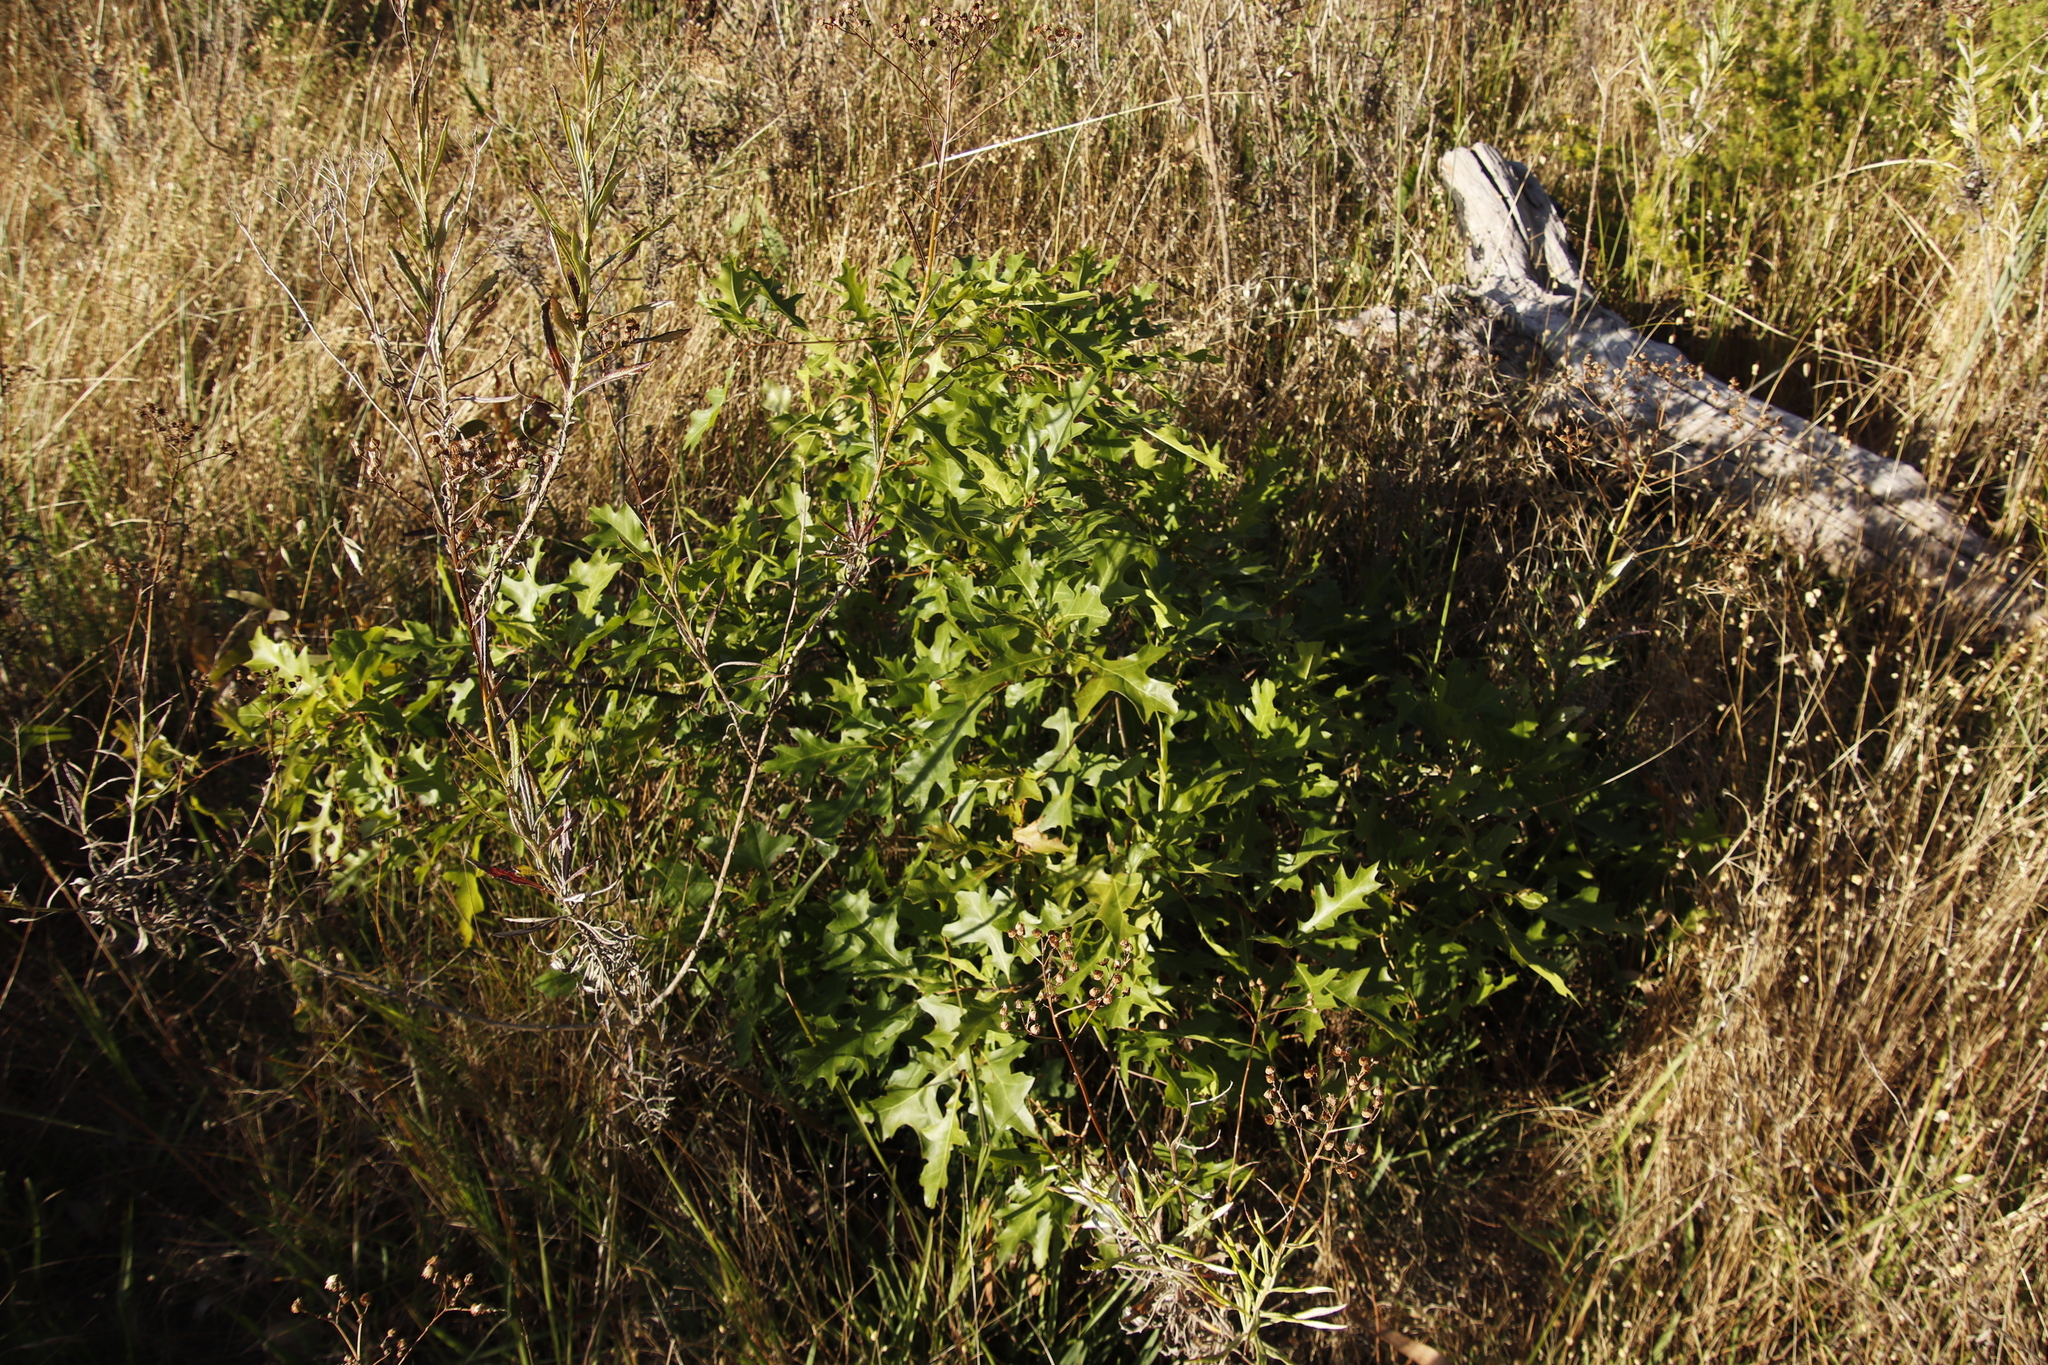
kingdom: Plantae
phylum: Tracheophyta
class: Magnoliopsida
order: Fagales
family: Fagaceae
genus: Quercus
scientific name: Quercus palustris
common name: Pin oak
